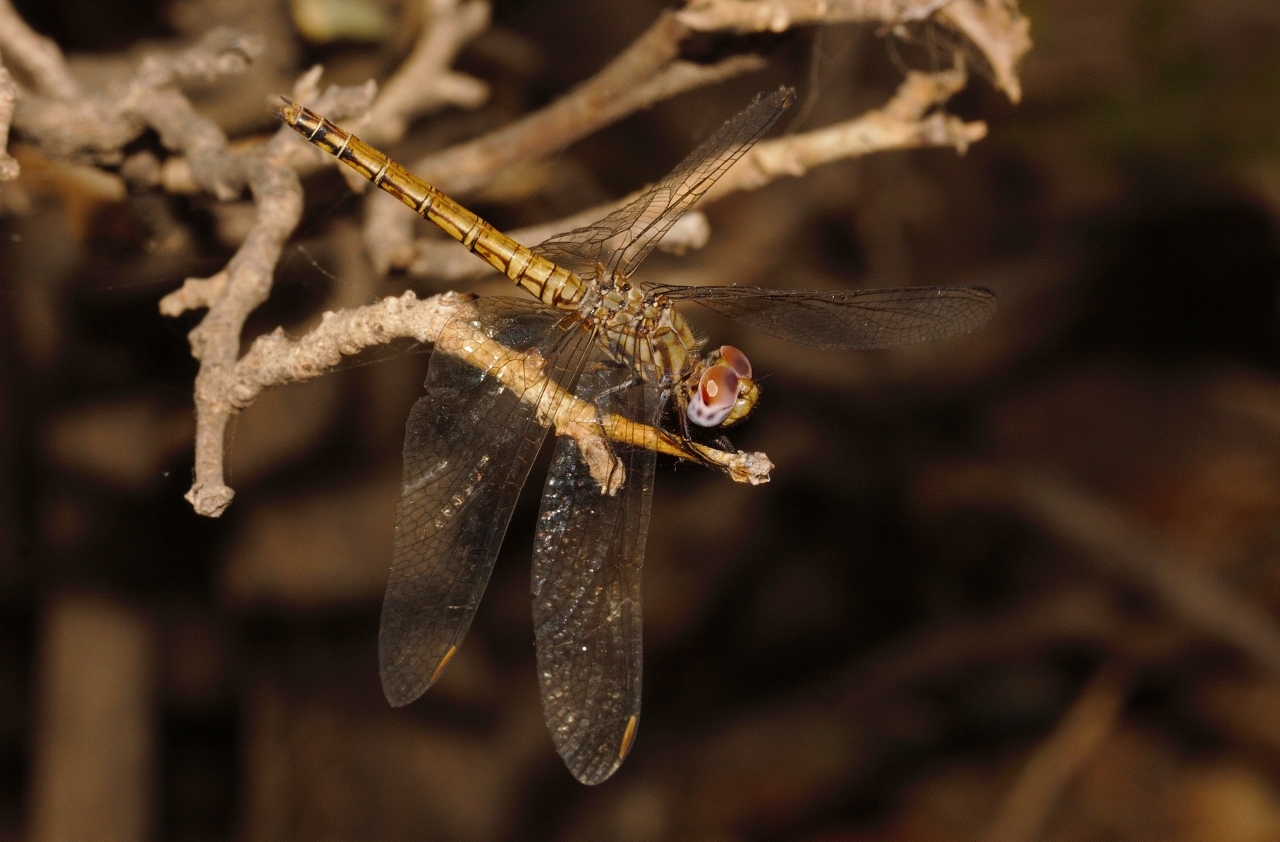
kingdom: Animalia
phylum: Arthropoda
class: Insecta
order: Odonata
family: Libellulidae
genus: Trithemis
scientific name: Trithemis werneri
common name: Elegant dropwing
